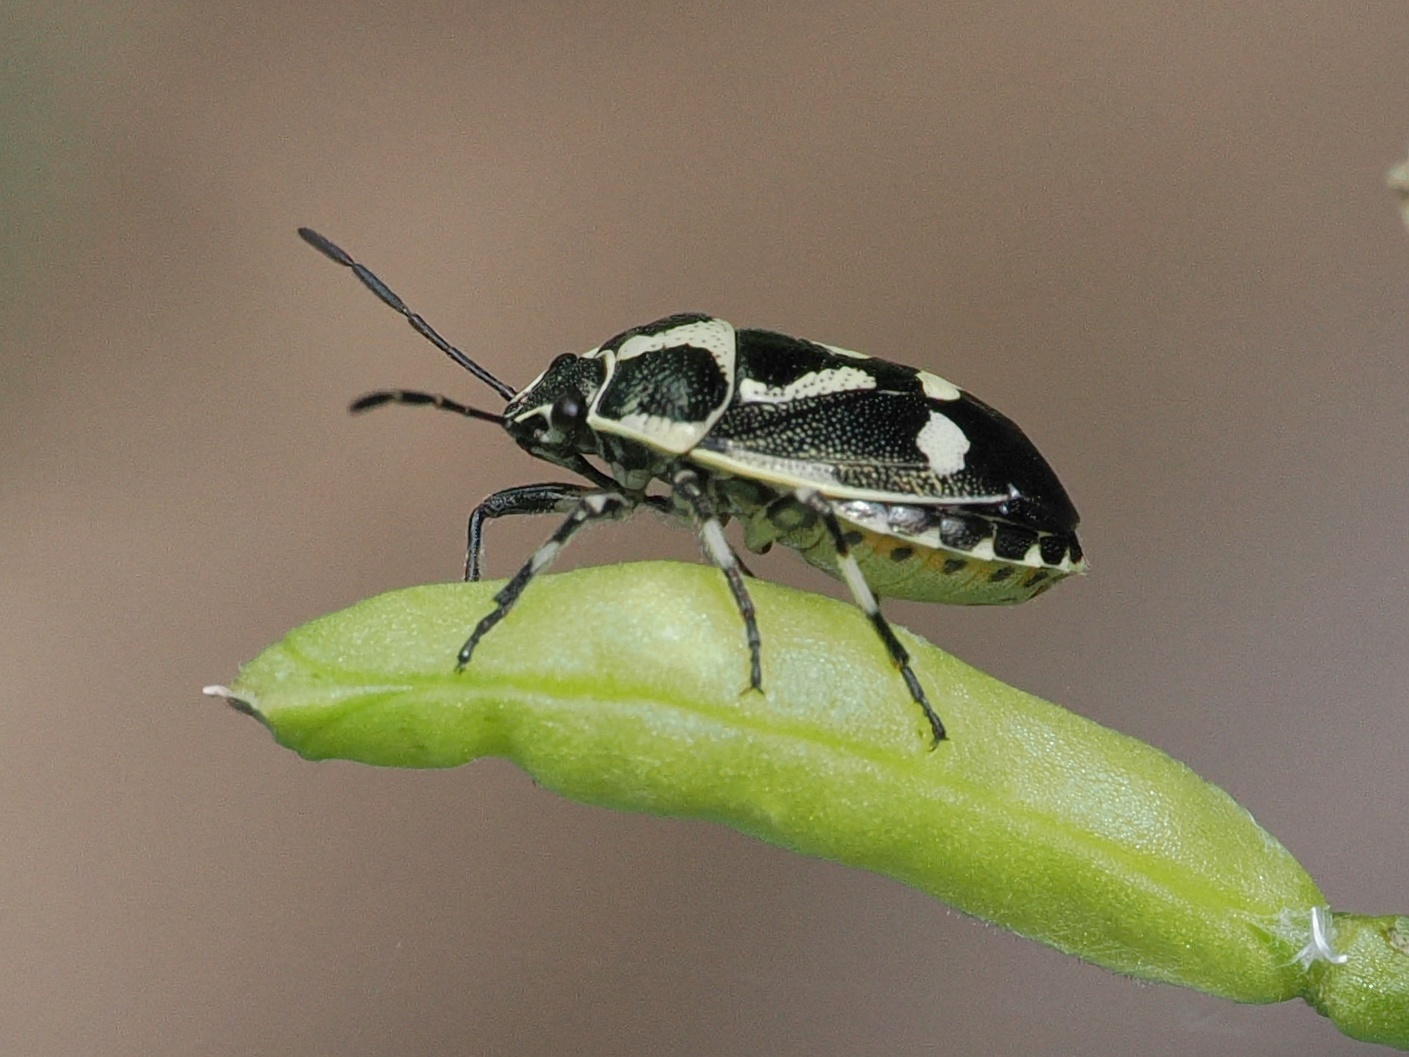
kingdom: Animalia
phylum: Arthropoda
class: Insecta
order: Hemiptera
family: Pentatomidae
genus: Eurydema
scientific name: Eurydema oleracea
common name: Cabbage bug
